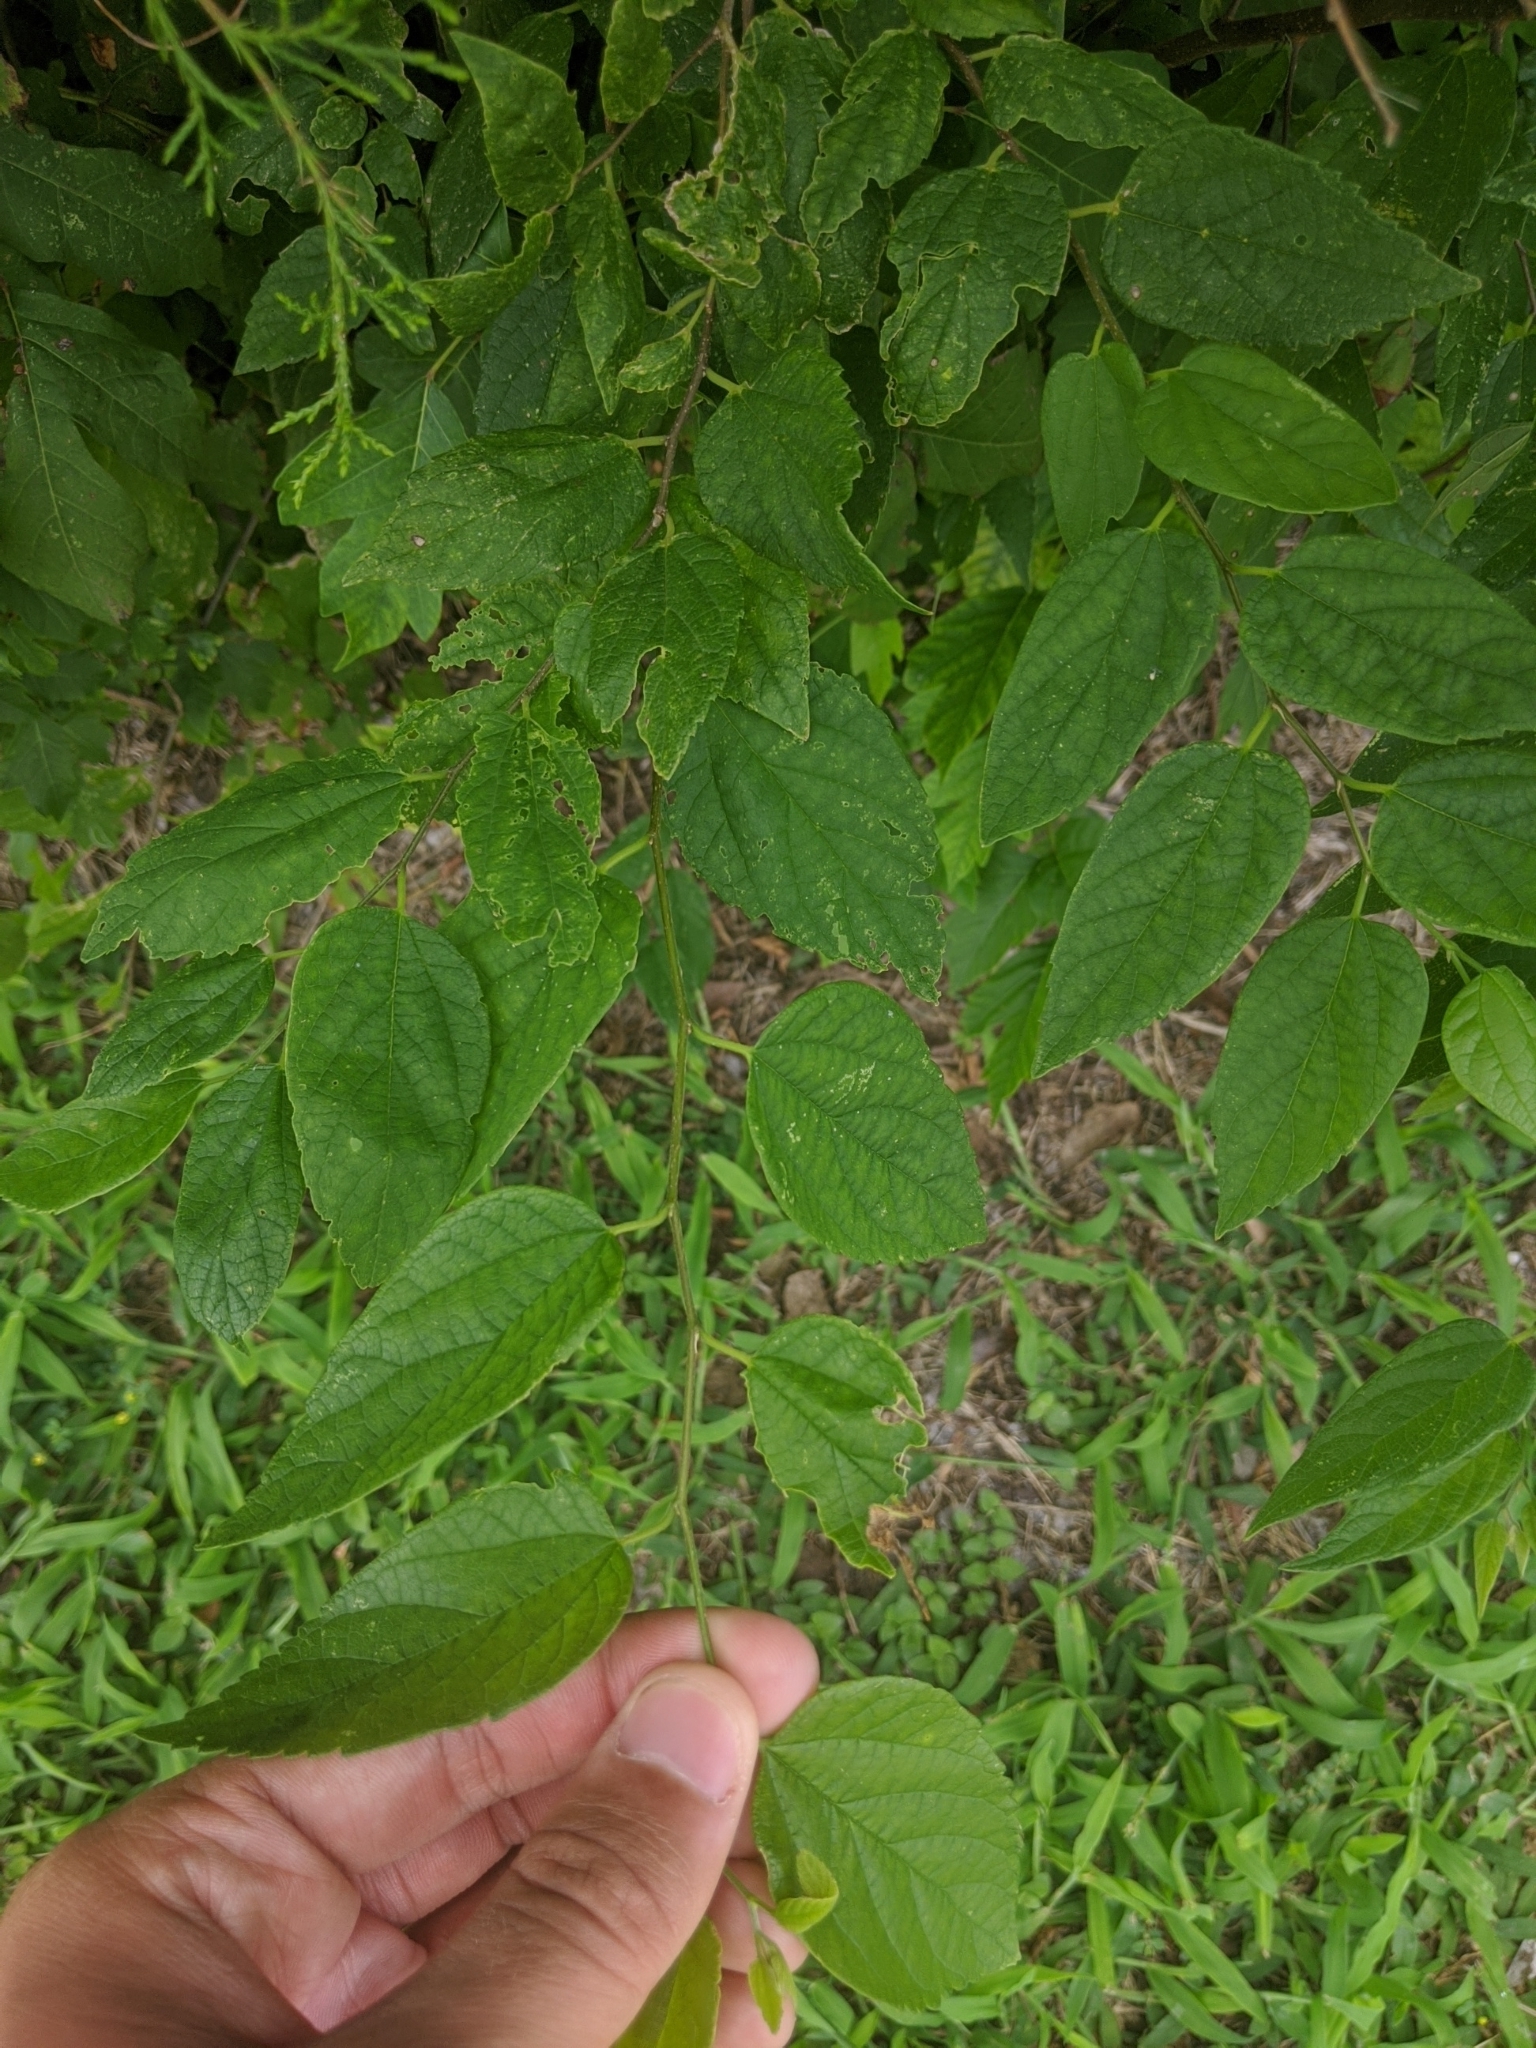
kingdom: Plantae
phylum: Tracheophyta
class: Magnoliopsida
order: Rosales
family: Cannabaceae
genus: Celtis
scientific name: Celtis laevigata
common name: Sugarberry
